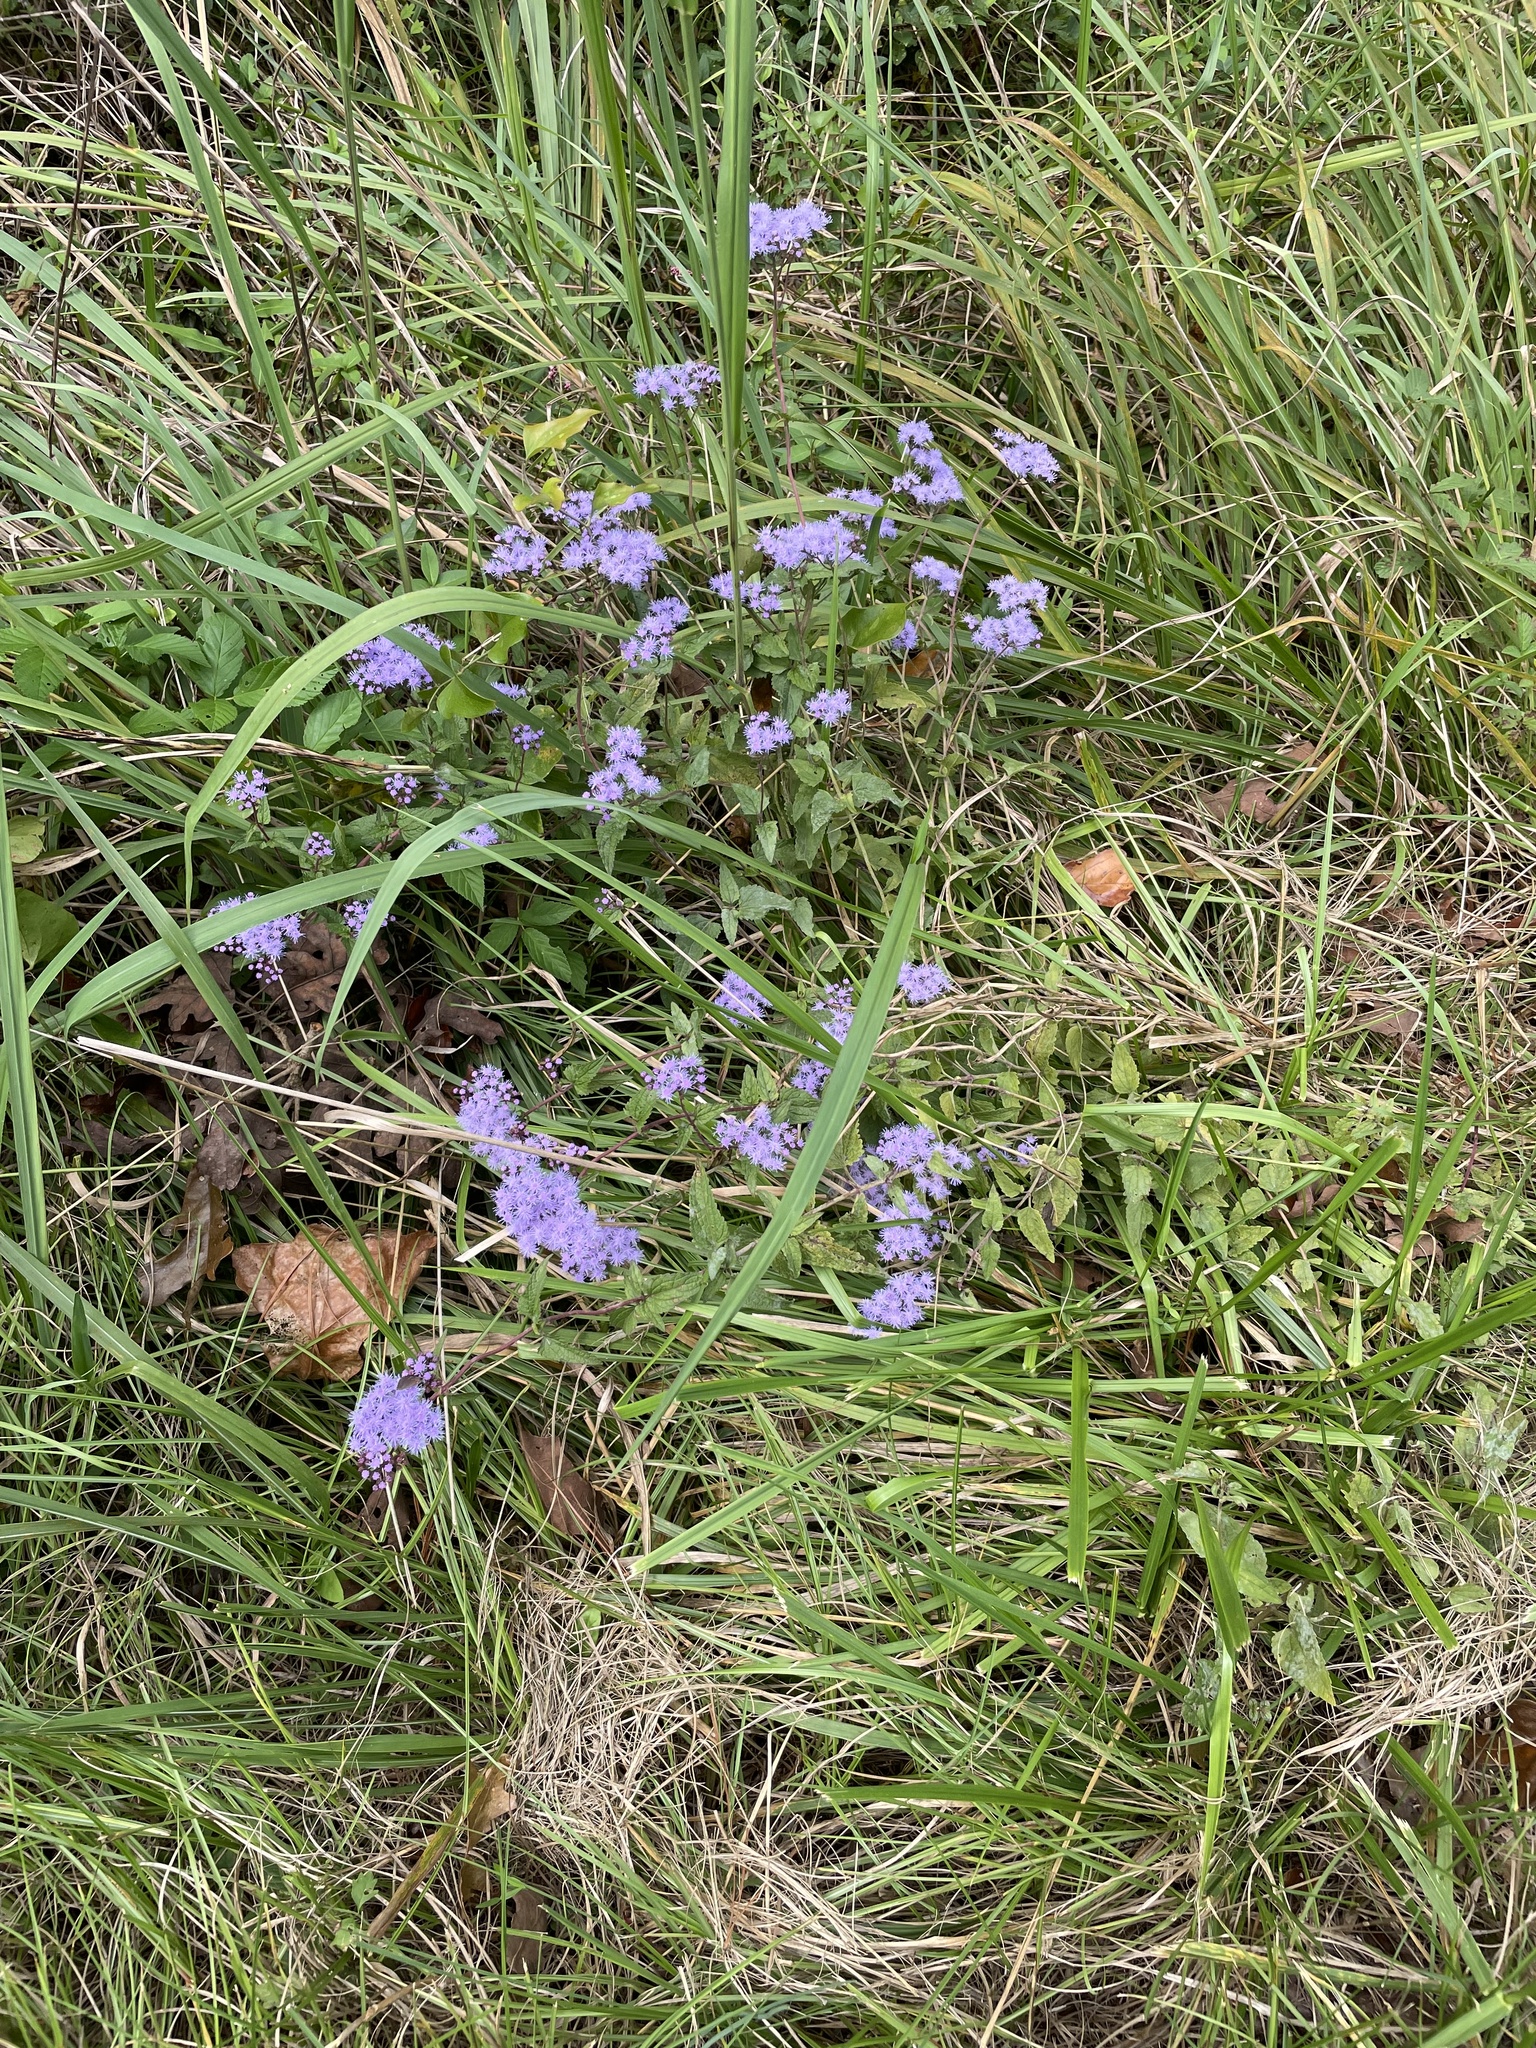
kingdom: Plantae
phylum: Tracheophyta
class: Magnoliopsida
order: Asterales
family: Asteraceae
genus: Conoclinium
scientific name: Conoclinium coelestinum
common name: Blue mistflower
